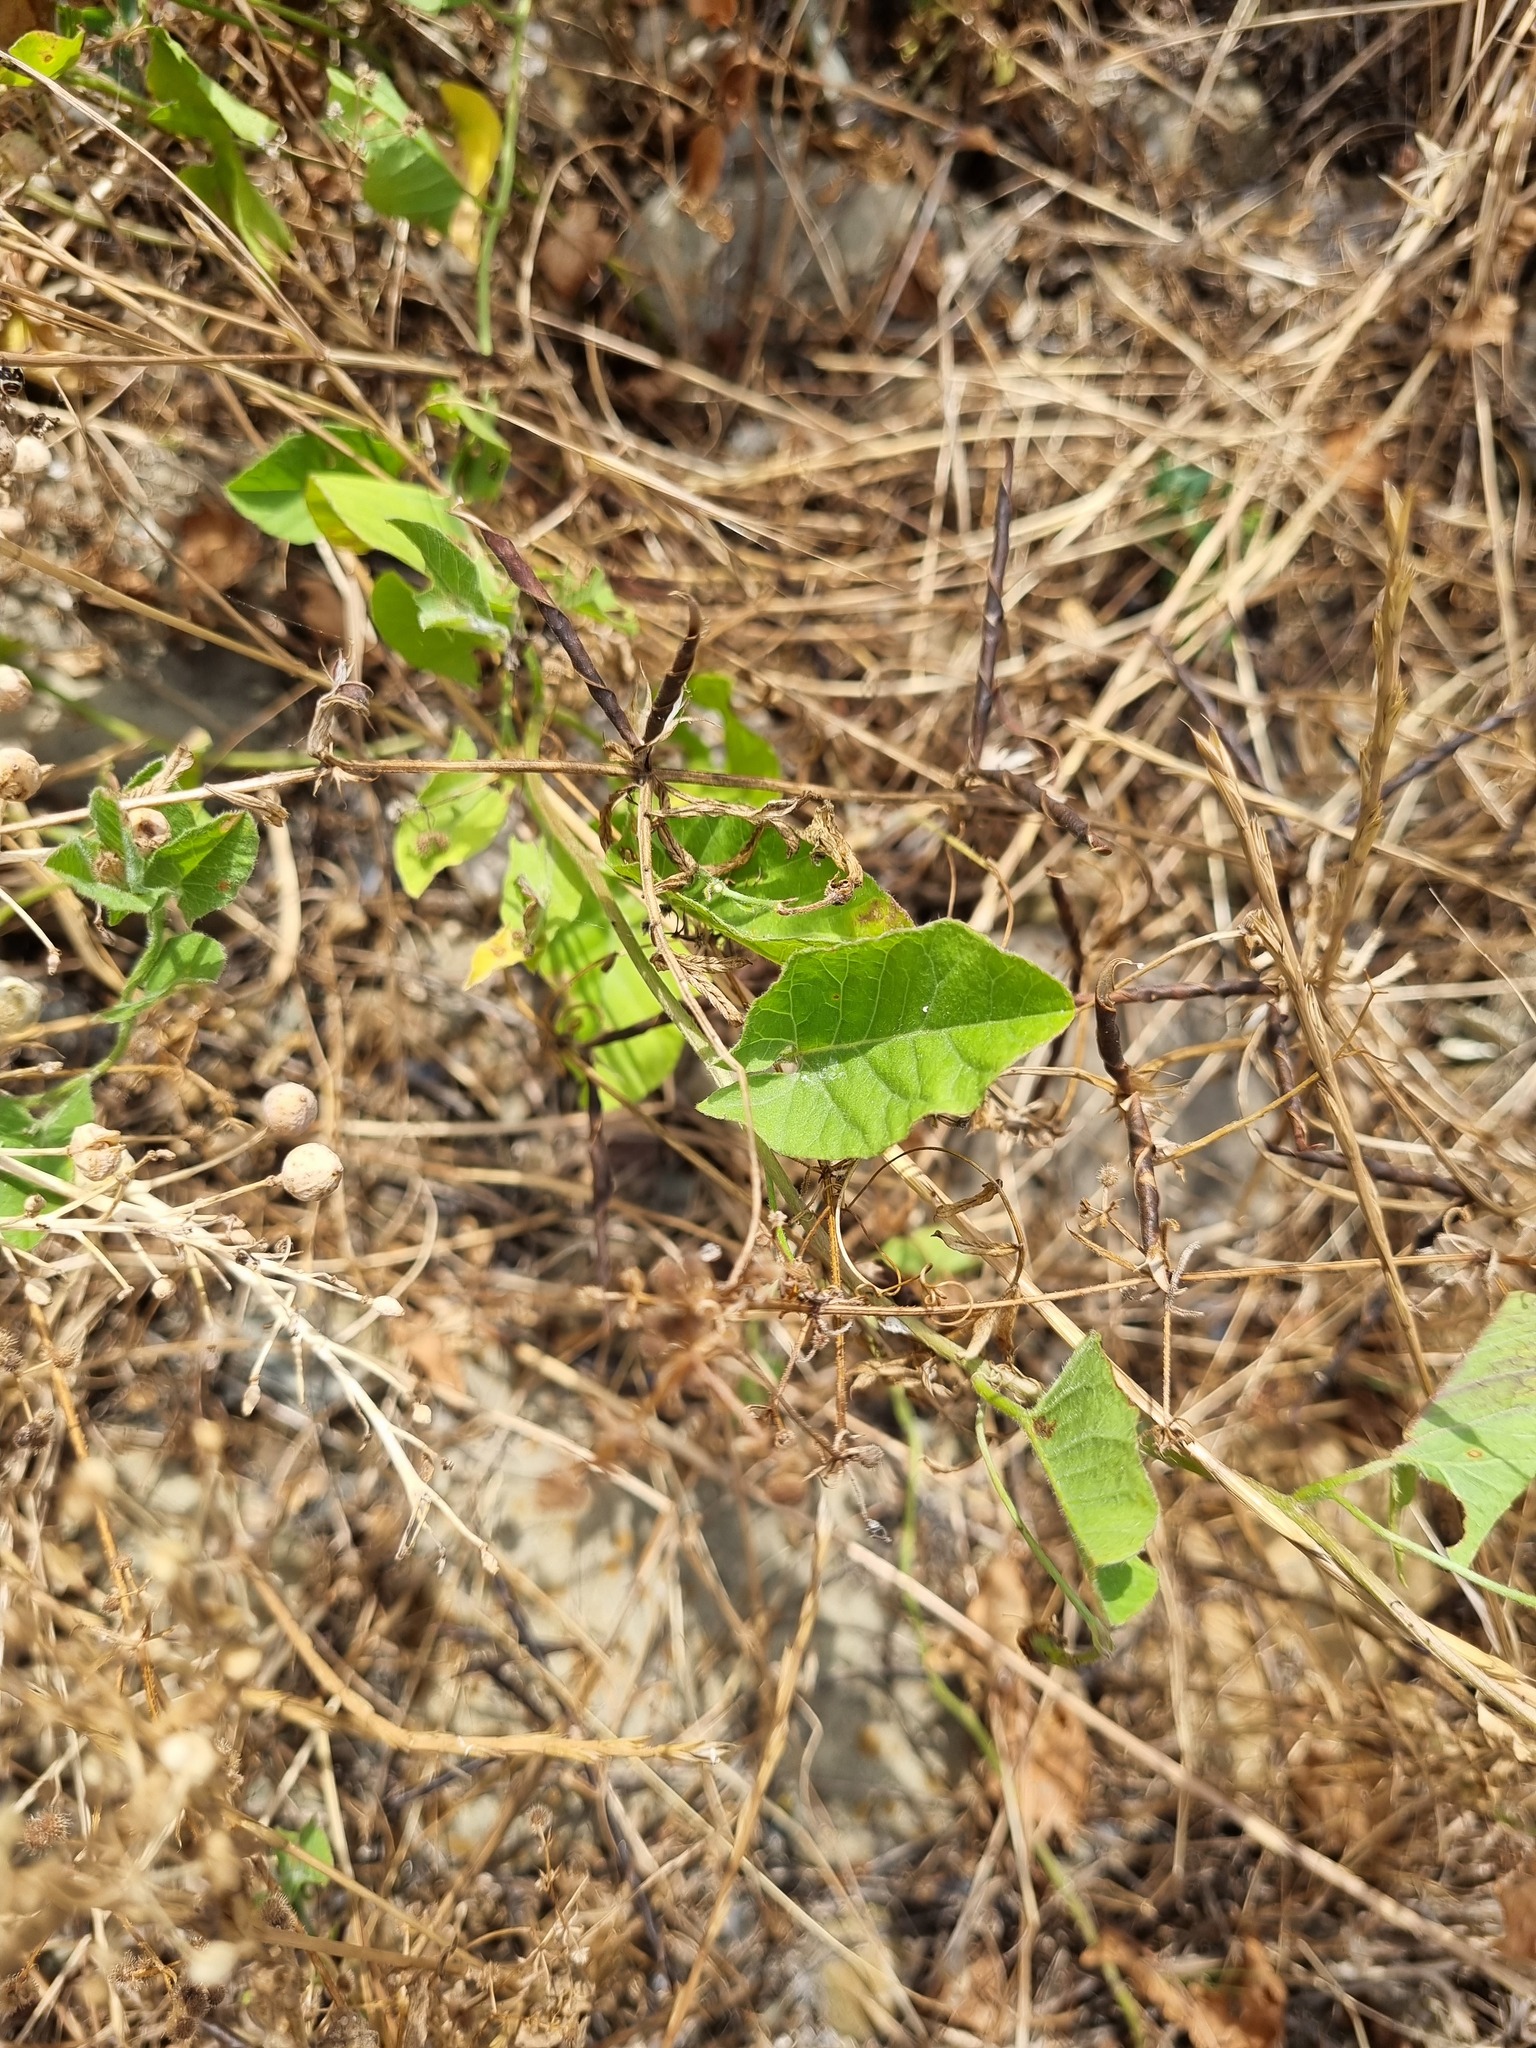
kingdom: Plantae
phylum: Tracheophyta
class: Magnoliopsida
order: Solanales
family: Convolvulaceae
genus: Convolvulus
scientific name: Convolvulus arvensis
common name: Field bindweed
